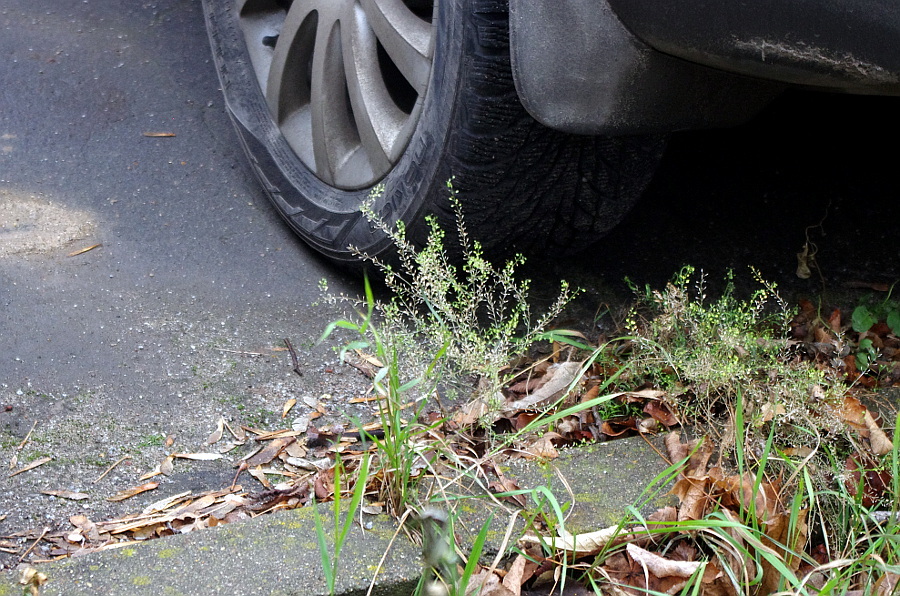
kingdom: Plantae
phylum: Tracheophyta
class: Magnoliopsida
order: Brassicales
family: Brassicaceae
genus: Lepidium
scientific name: Lepidium ruderale
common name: Narrow-leaved pepperwort
